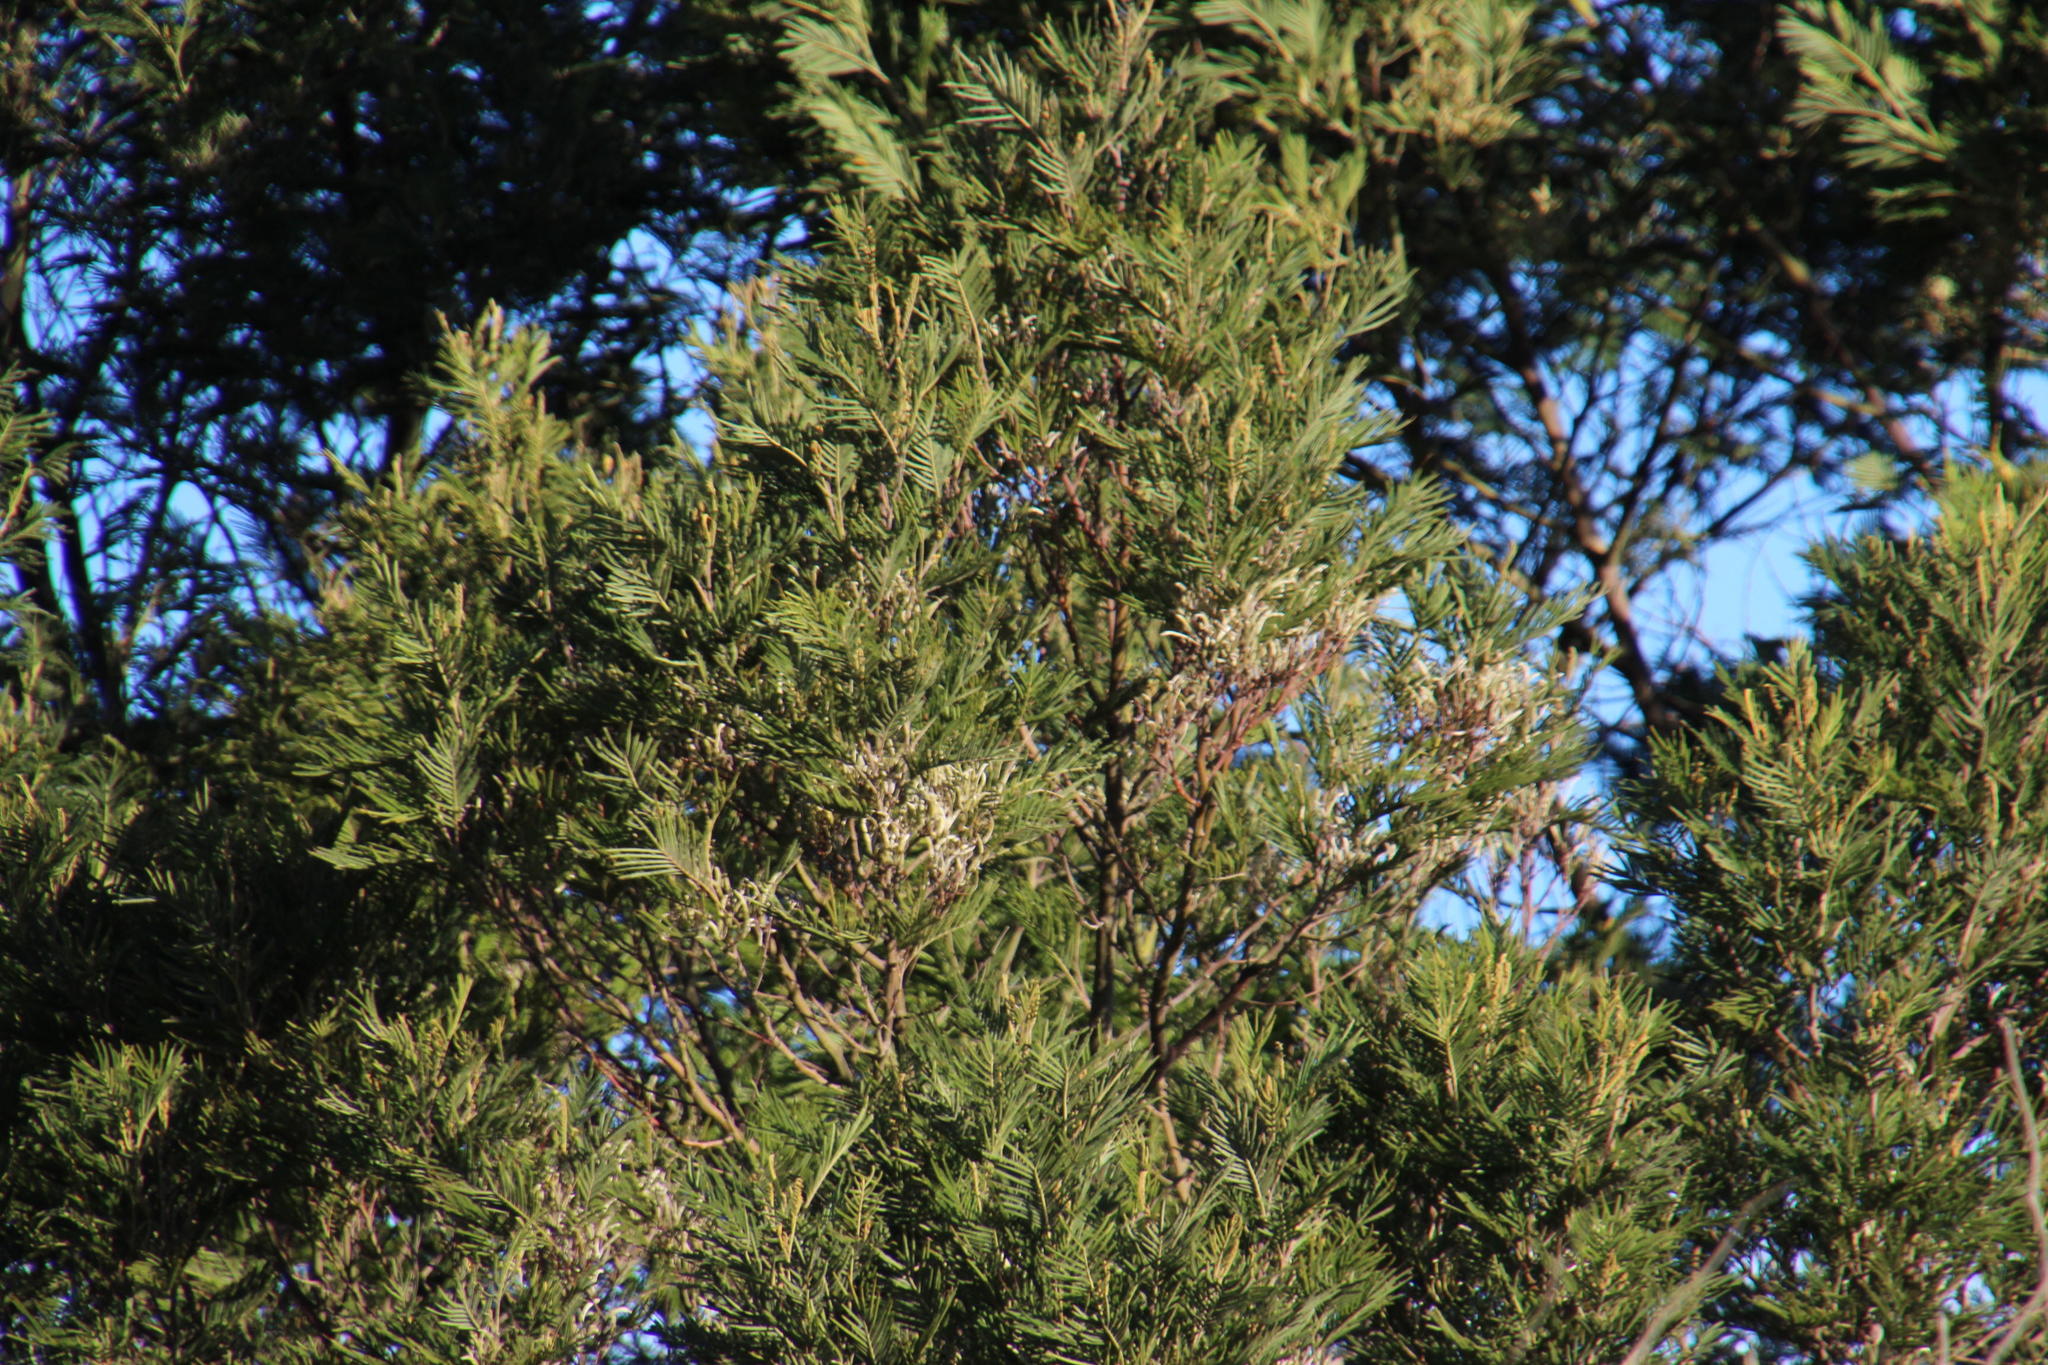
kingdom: Plantae
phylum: Tracheophyta
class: Magnoliopsida
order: Fabales
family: Fabaceae
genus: Acacia
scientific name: Acacia mearnsii
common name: Black wattle
